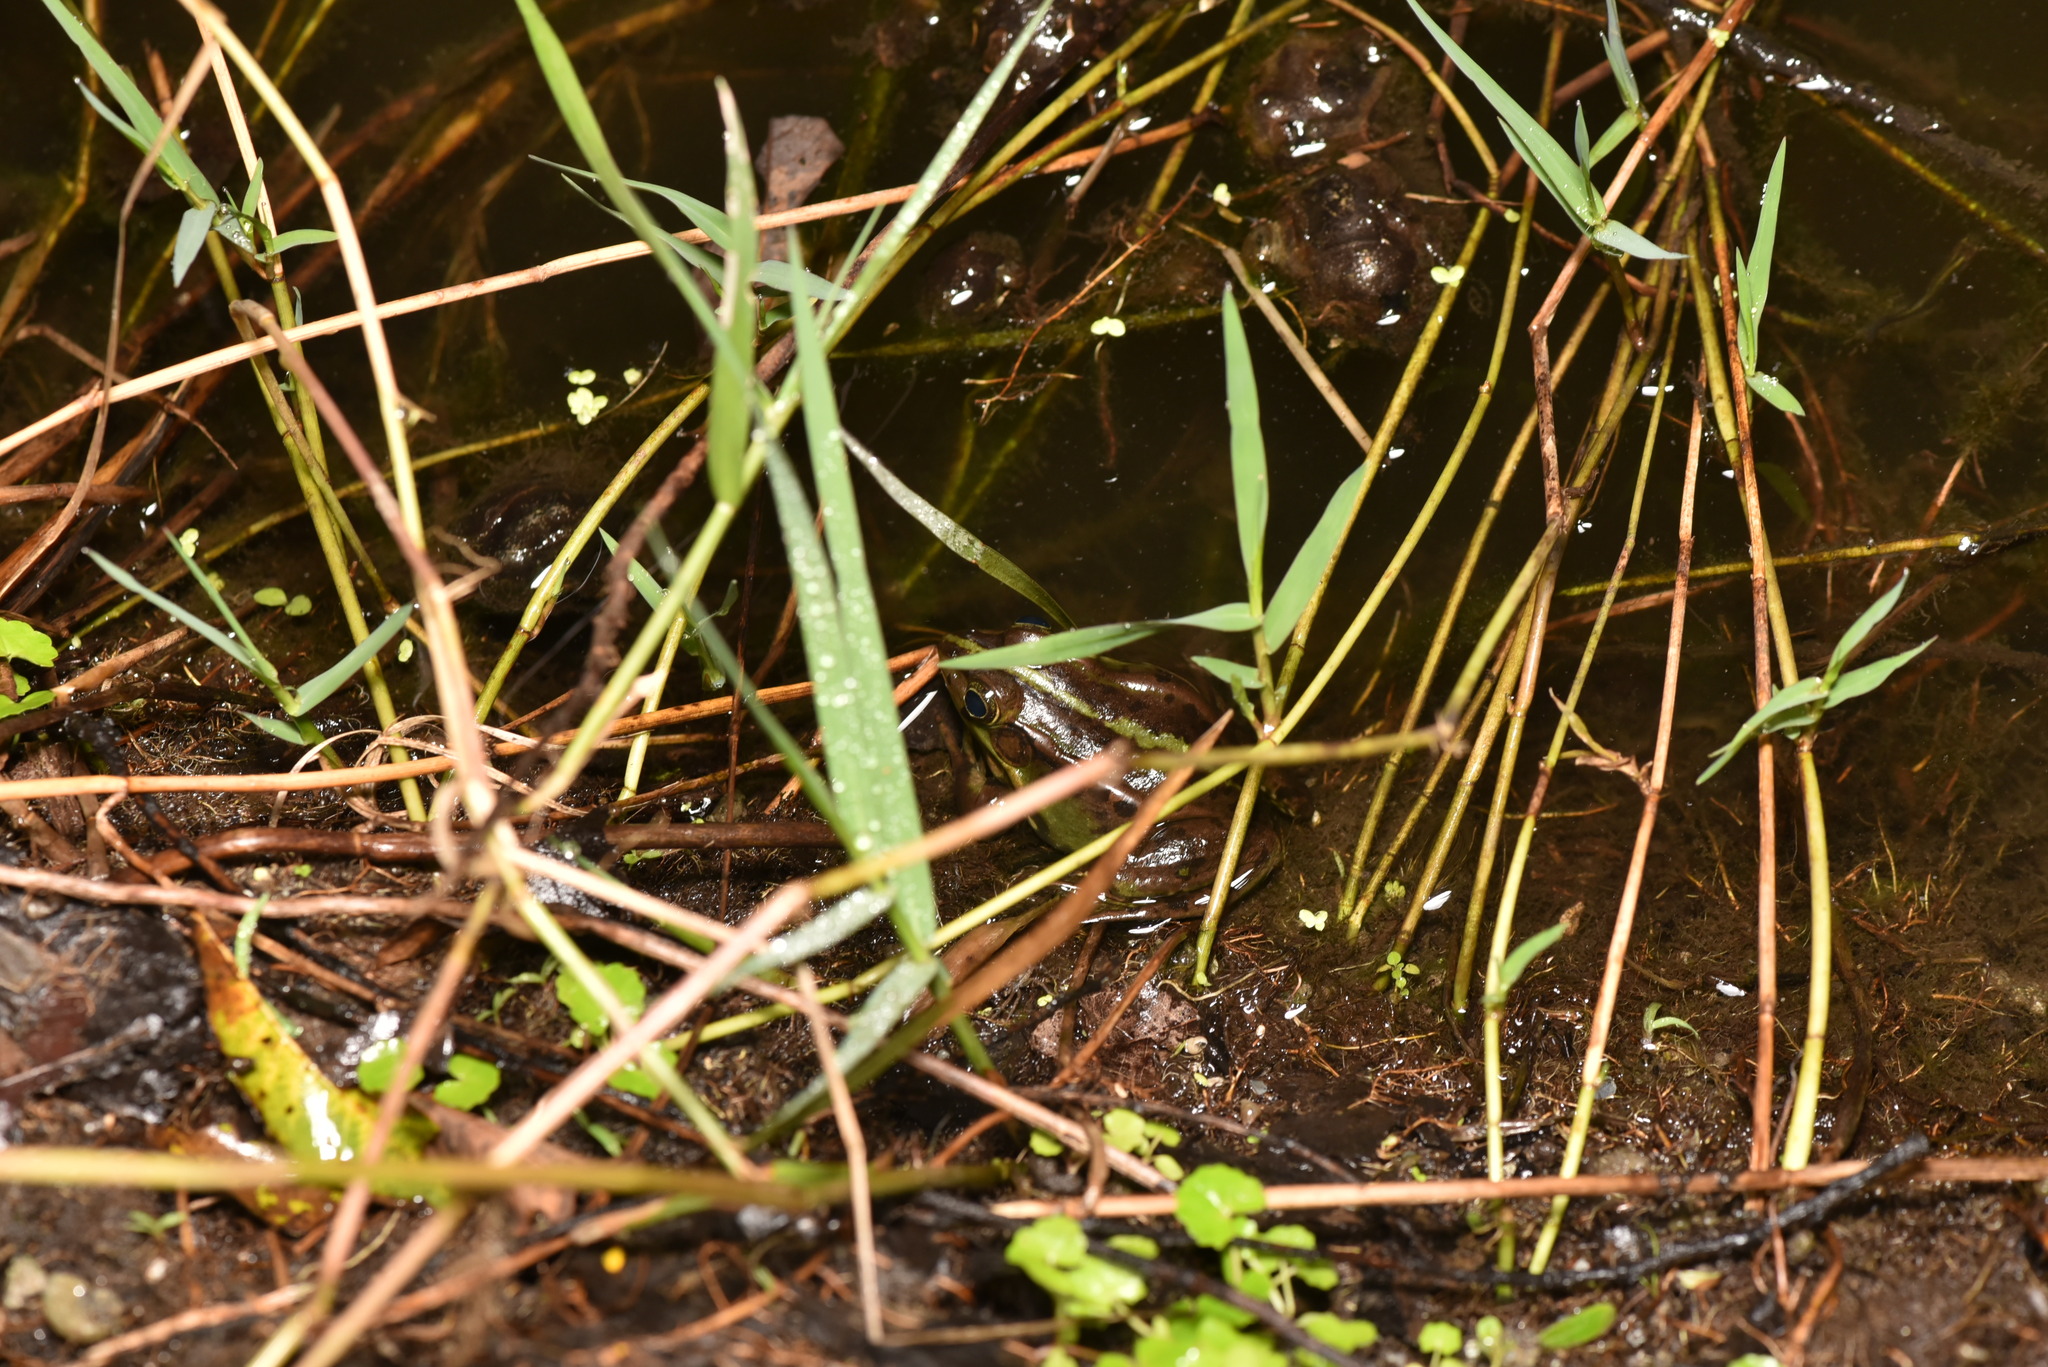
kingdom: Animalia
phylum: Chordata
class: Amphibia
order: Anura
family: Ranidae
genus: Pelophylax
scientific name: Pelophylax fukienensis
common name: Fukien gold-striped pond frog
